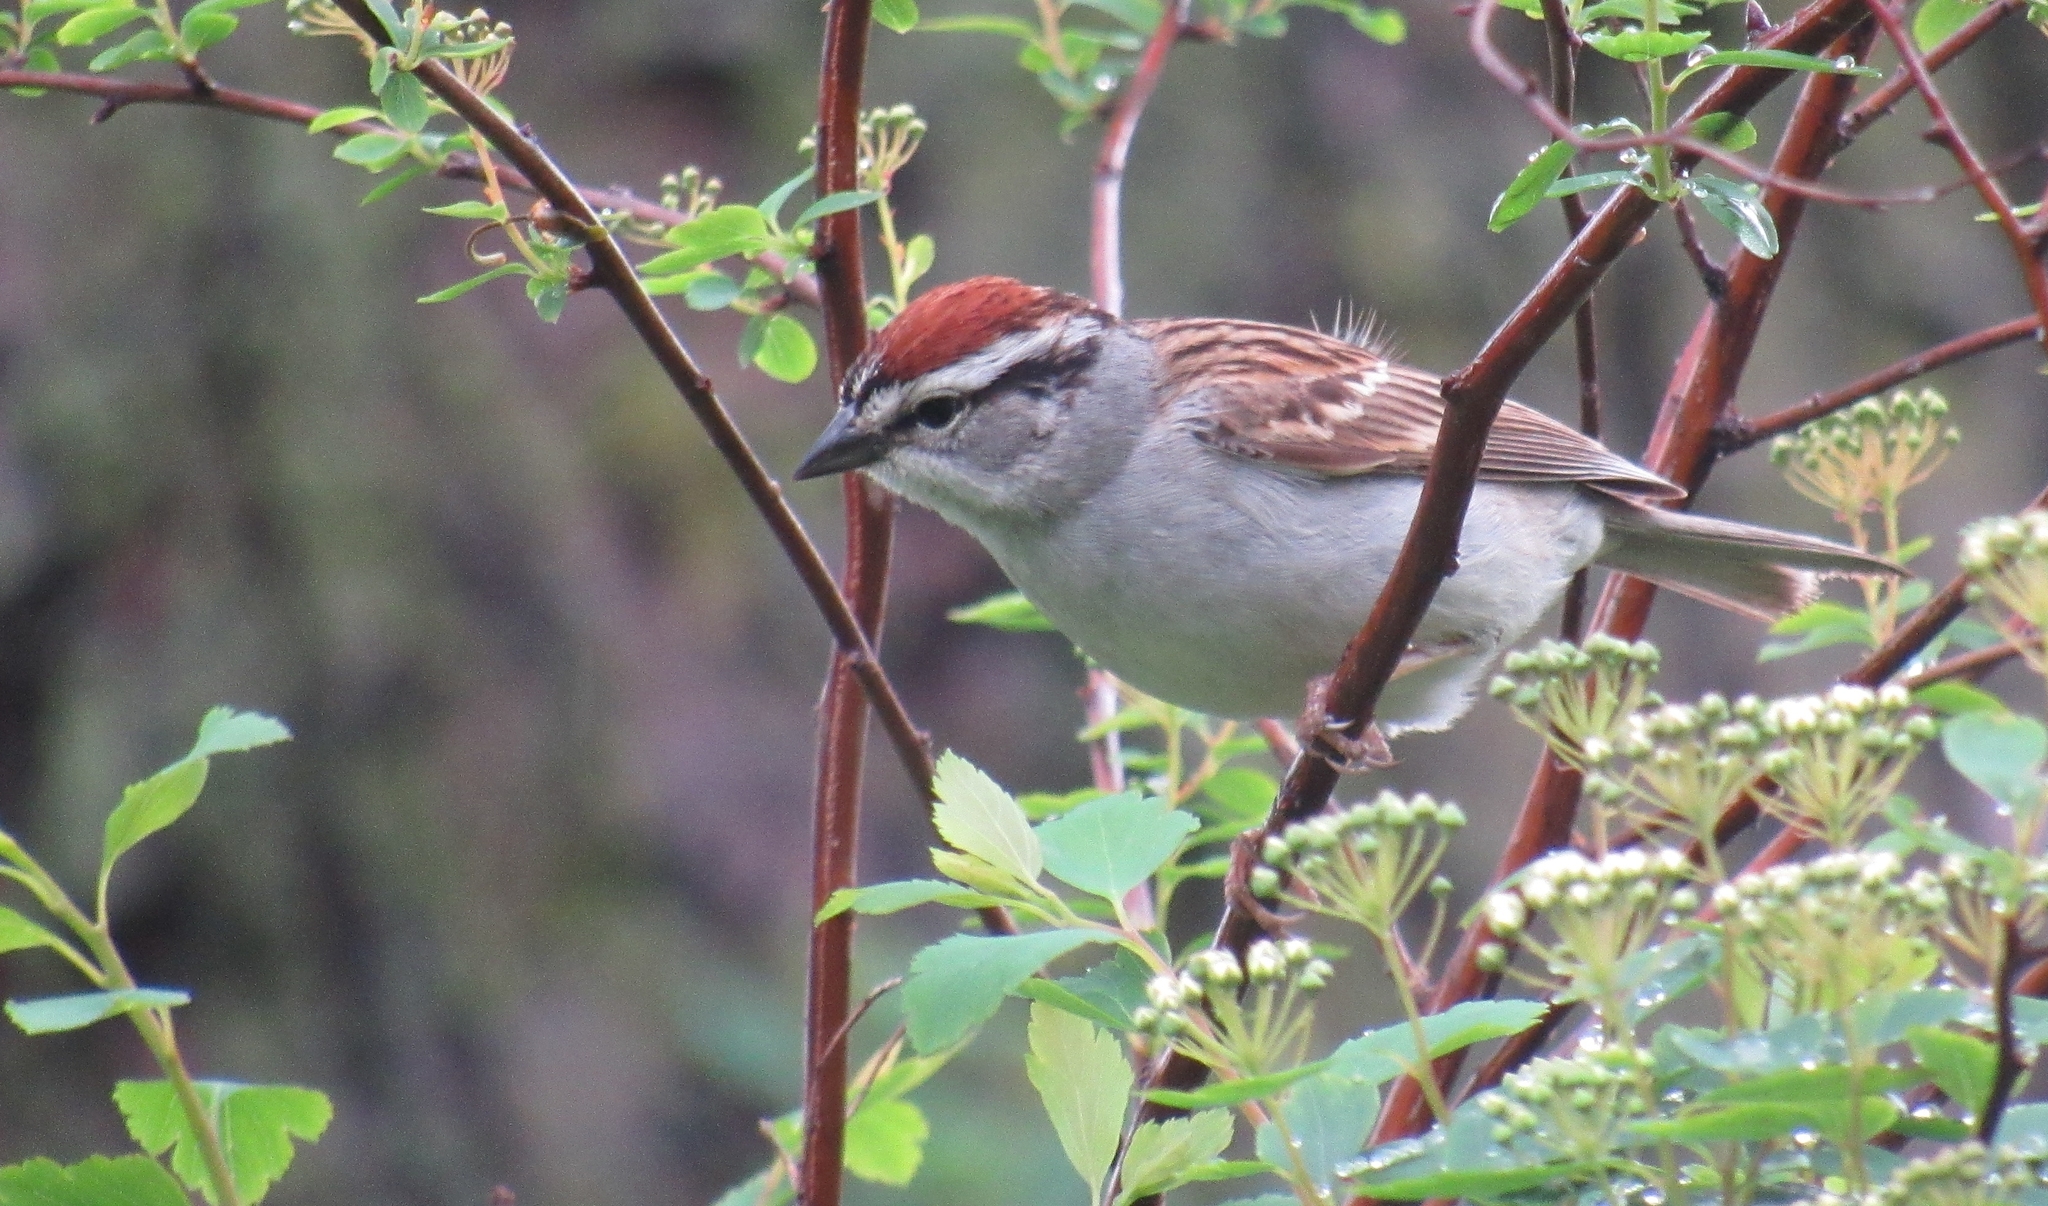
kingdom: Animalia
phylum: Chordata
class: Aves
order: Passeriformes
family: Passerellidae
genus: Spizella
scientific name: Spizella passerina
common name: Chipping sparrow
